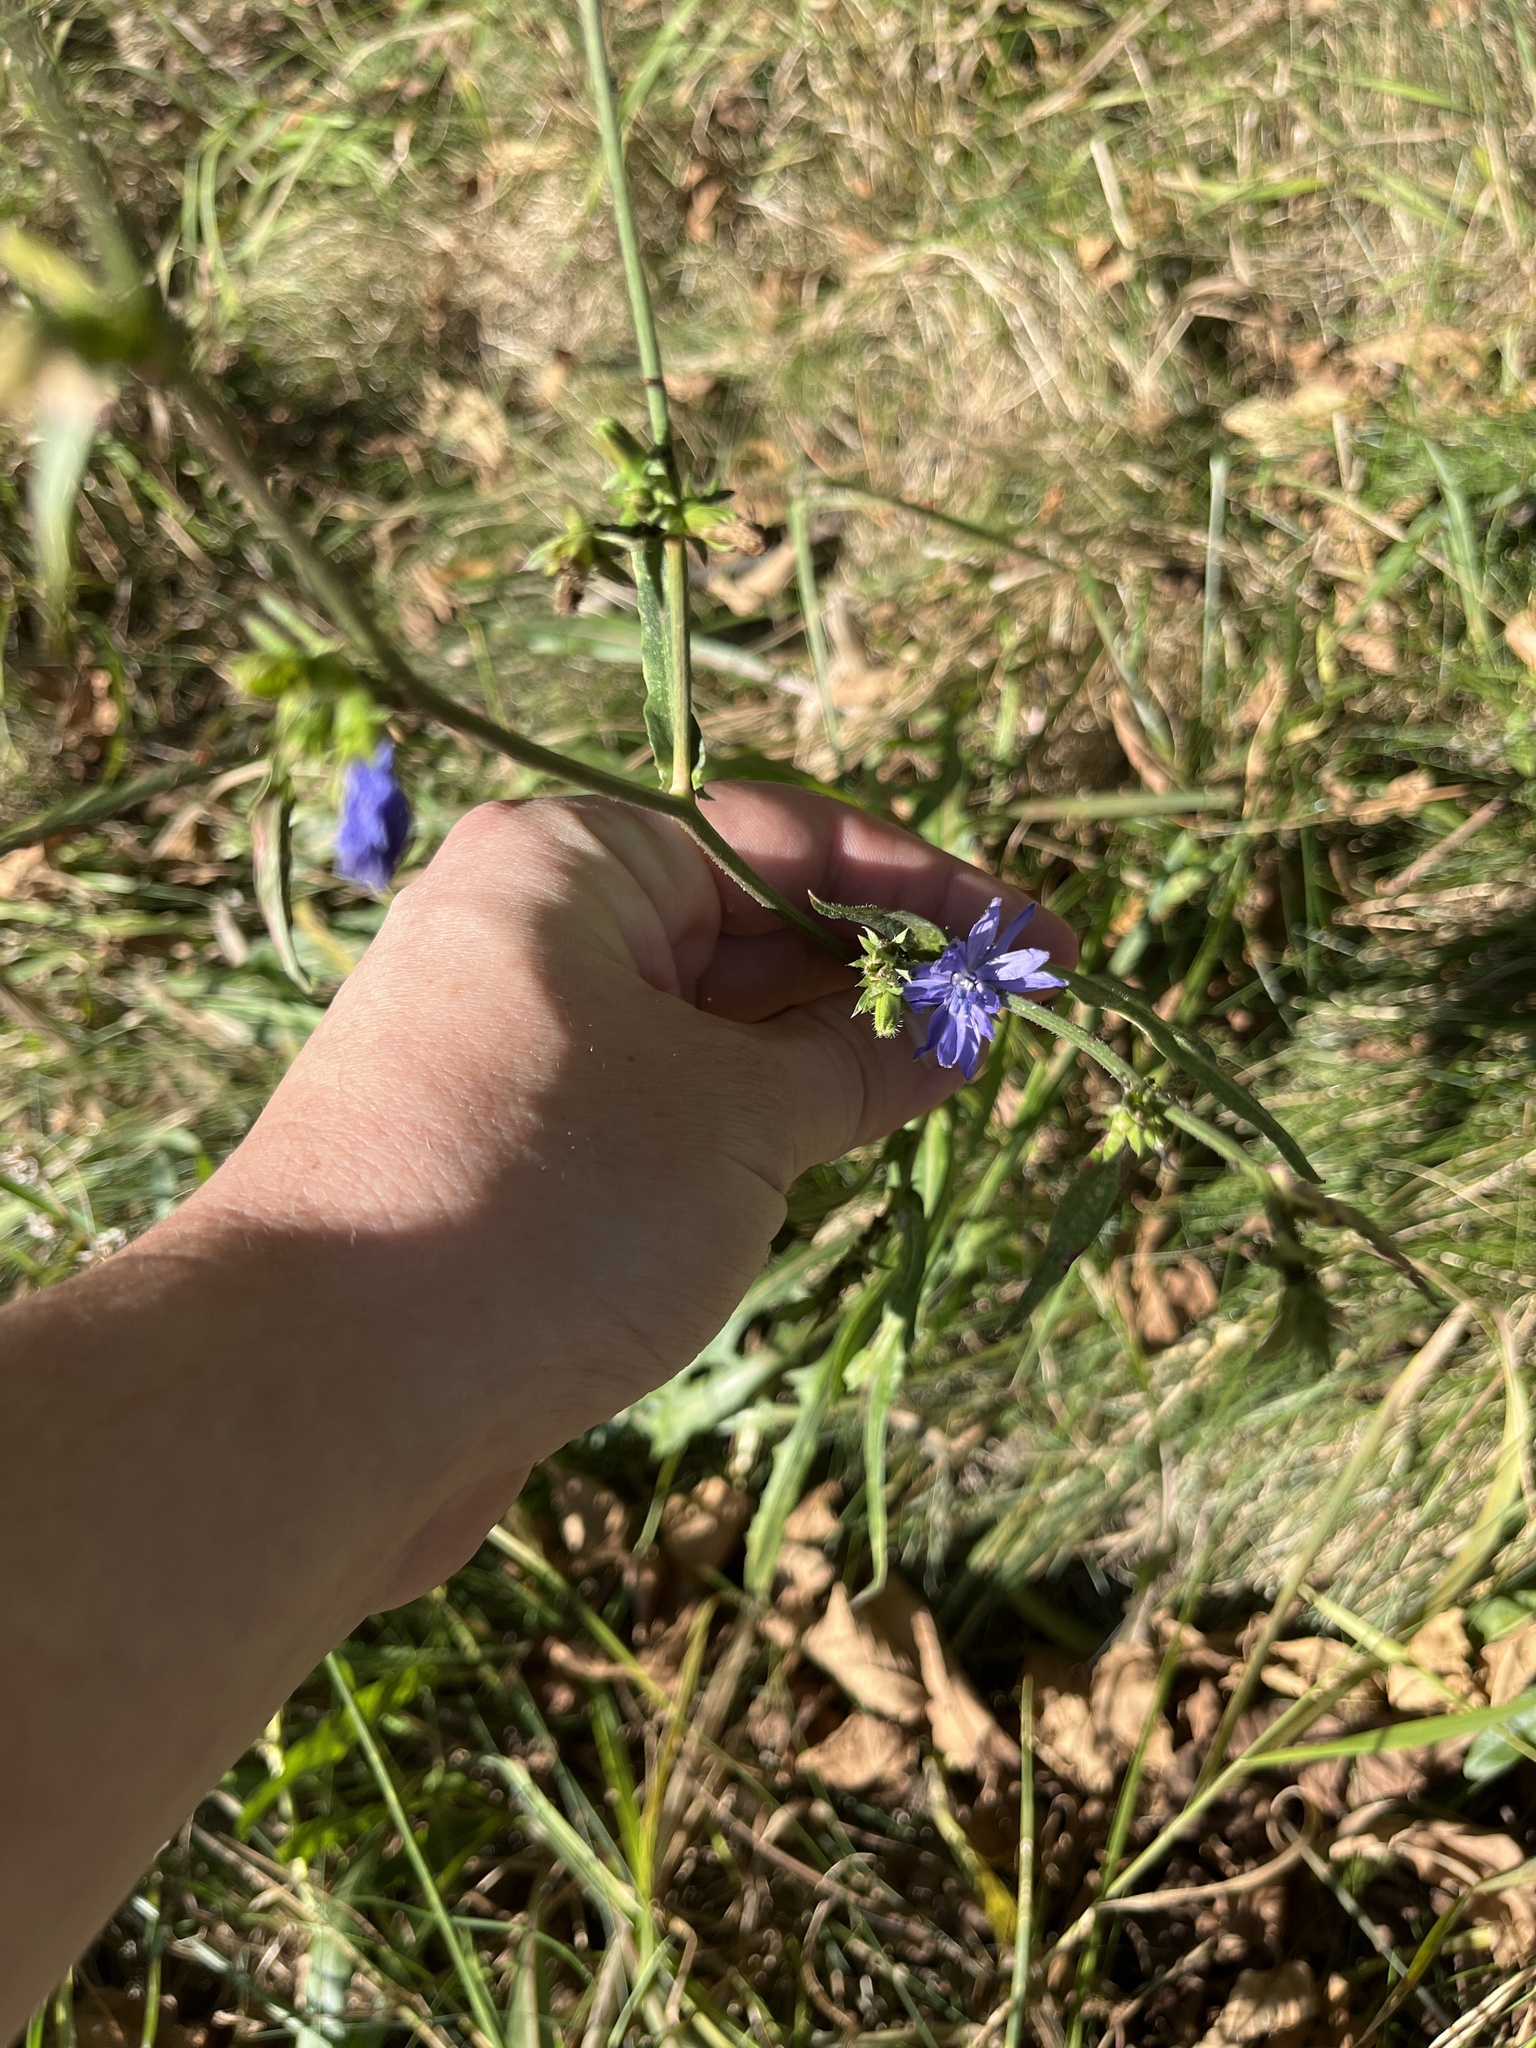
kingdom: Plantae
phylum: Tracheophyta
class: Magnoliopsida
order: Asterales
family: Asteraceae
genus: Cichorium
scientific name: Cichorium intybus
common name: Chicory
